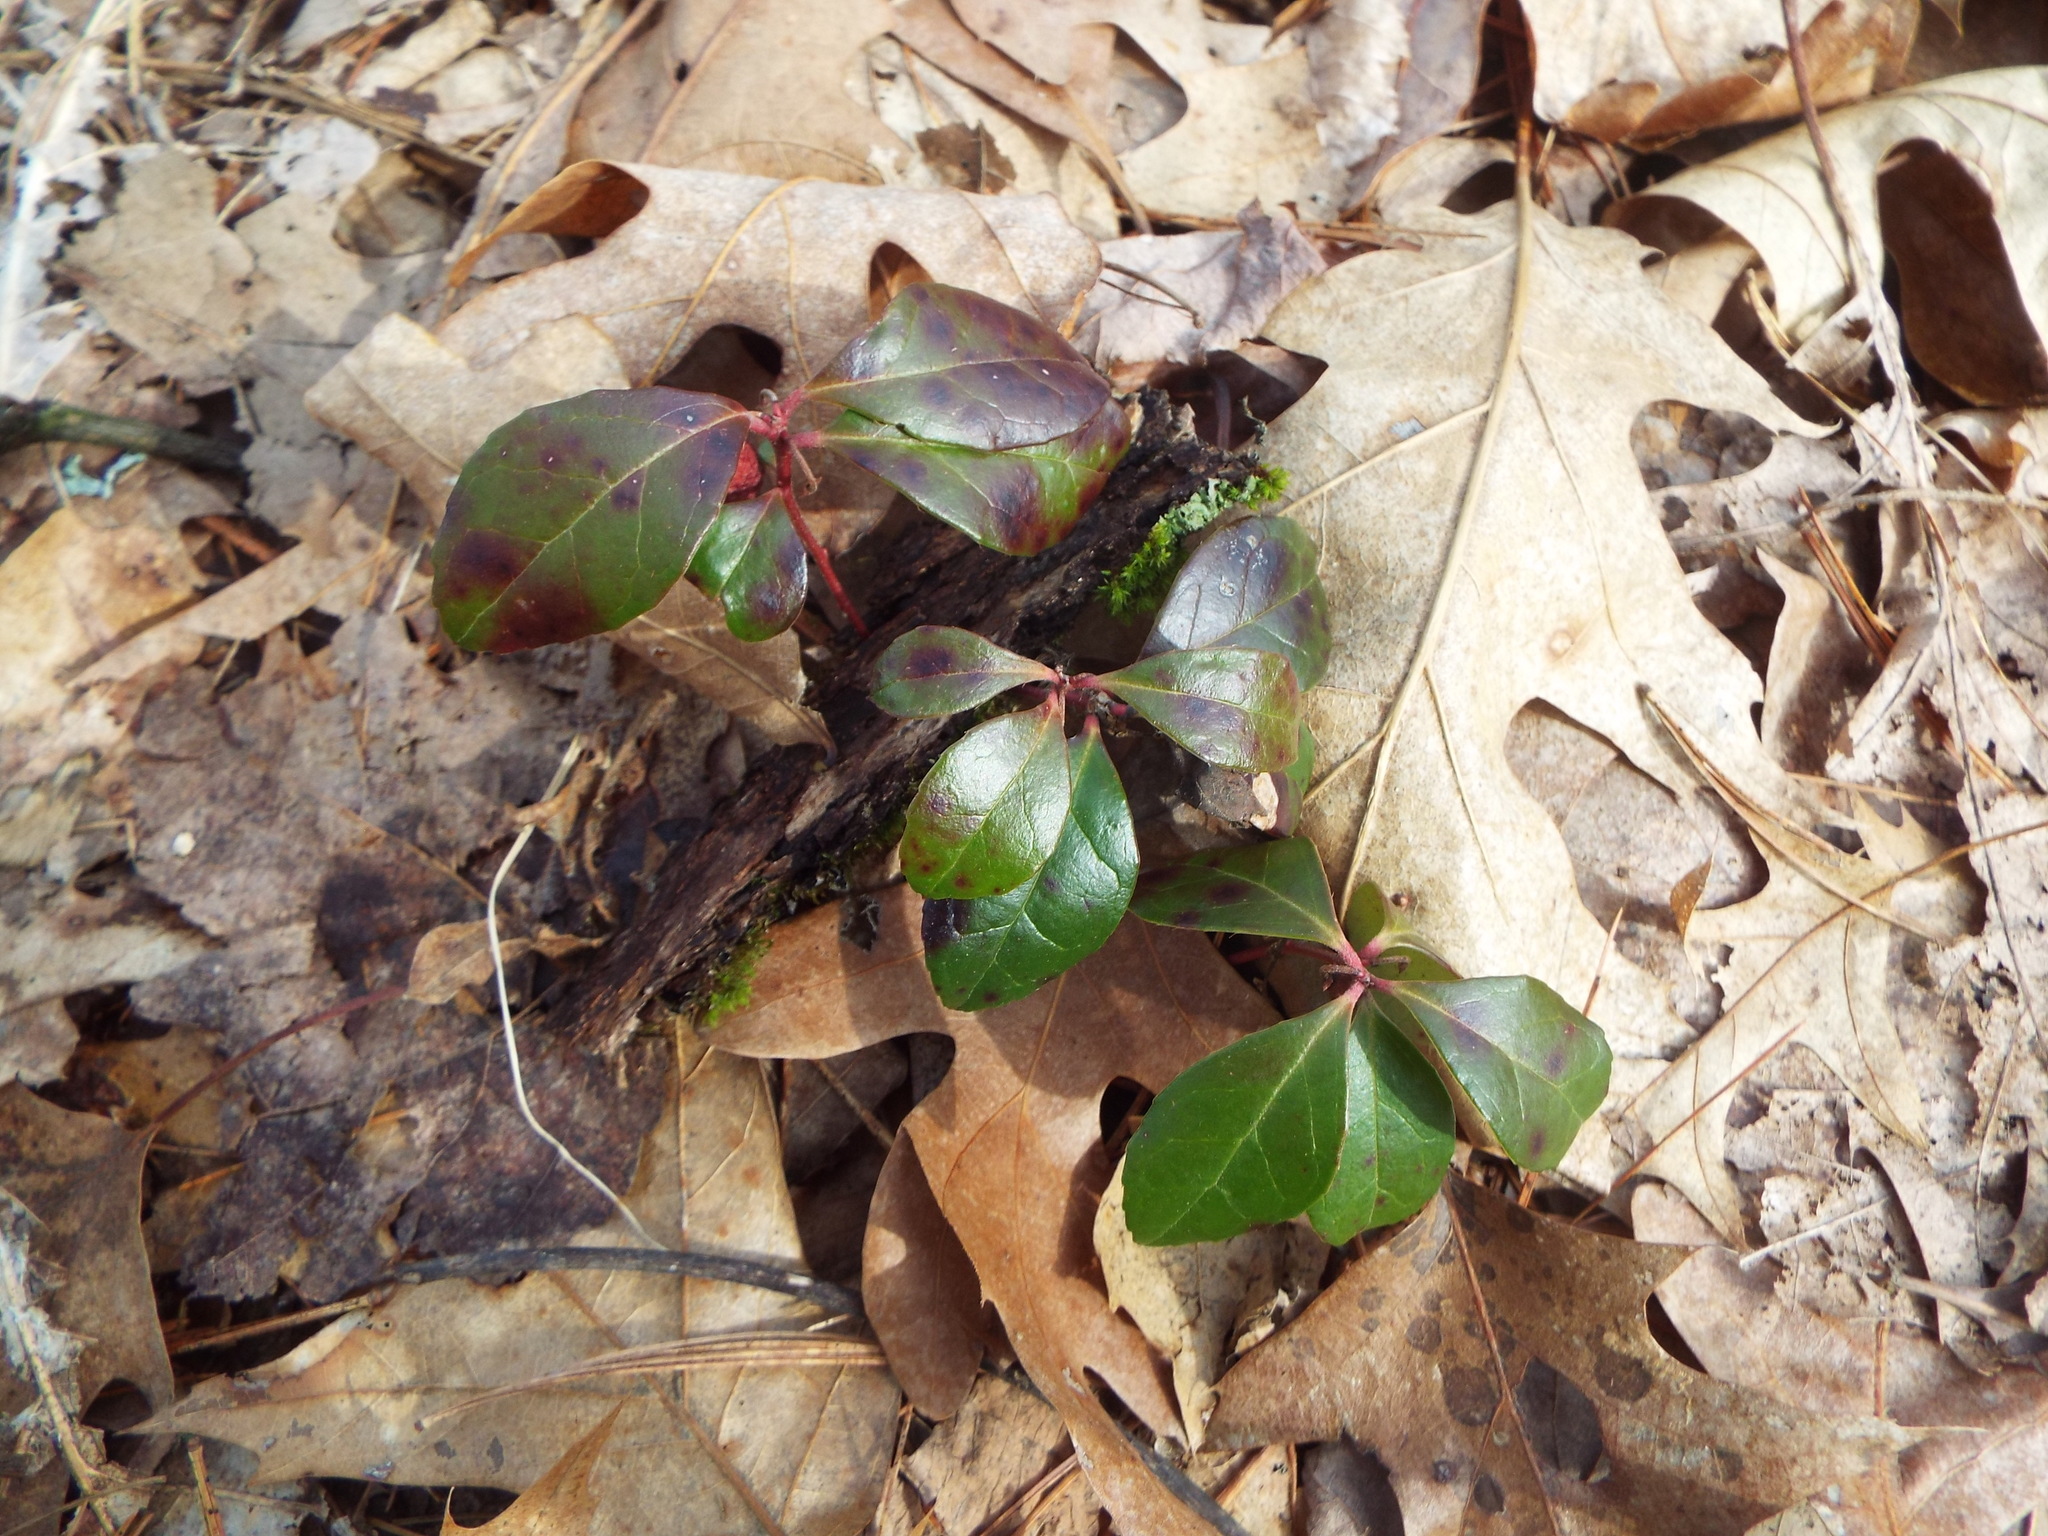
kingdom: Plantae
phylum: Tracheophyta
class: Magnoliopsida
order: Ericales
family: Ericaceae
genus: Gaultheria
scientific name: Gaultheria procumbens
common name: Checkerberry
